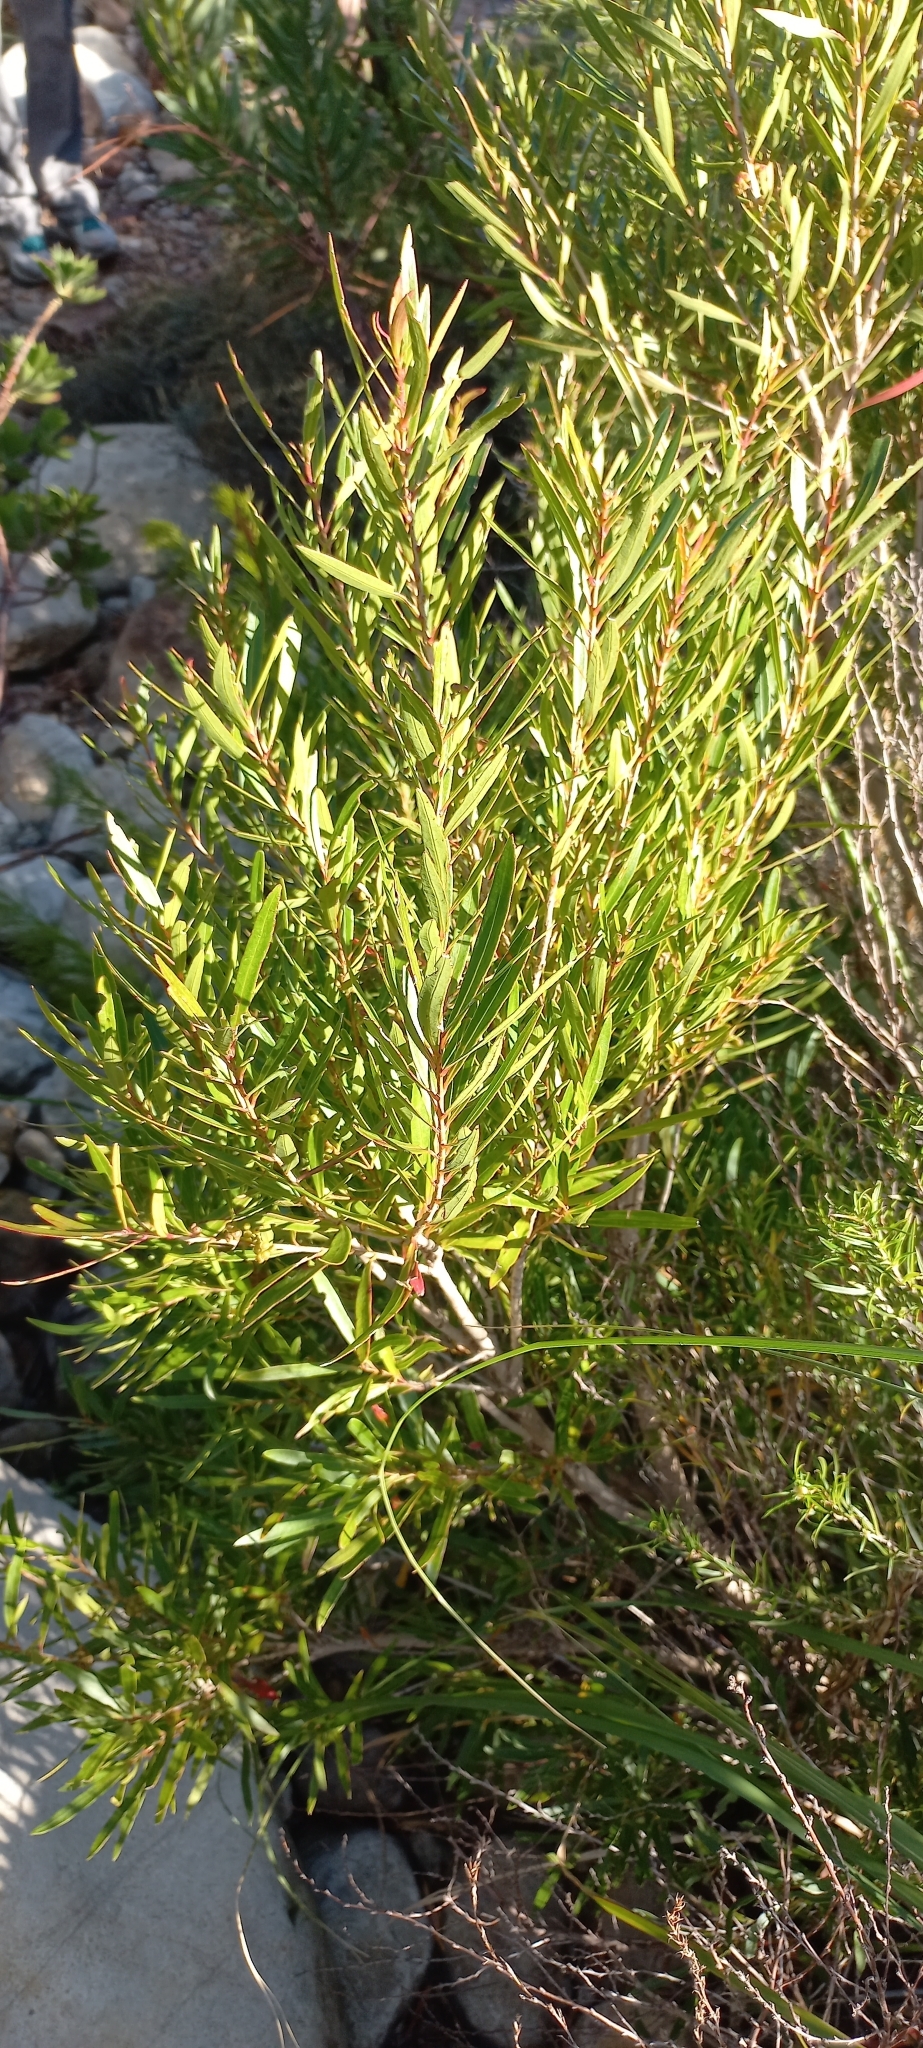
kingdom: Plantae
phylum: Tracheophyta
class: Magnoliopsida
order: Myrtales
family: Myrtaceae
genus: Callistemon
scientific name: Callistemon lanceolatus
